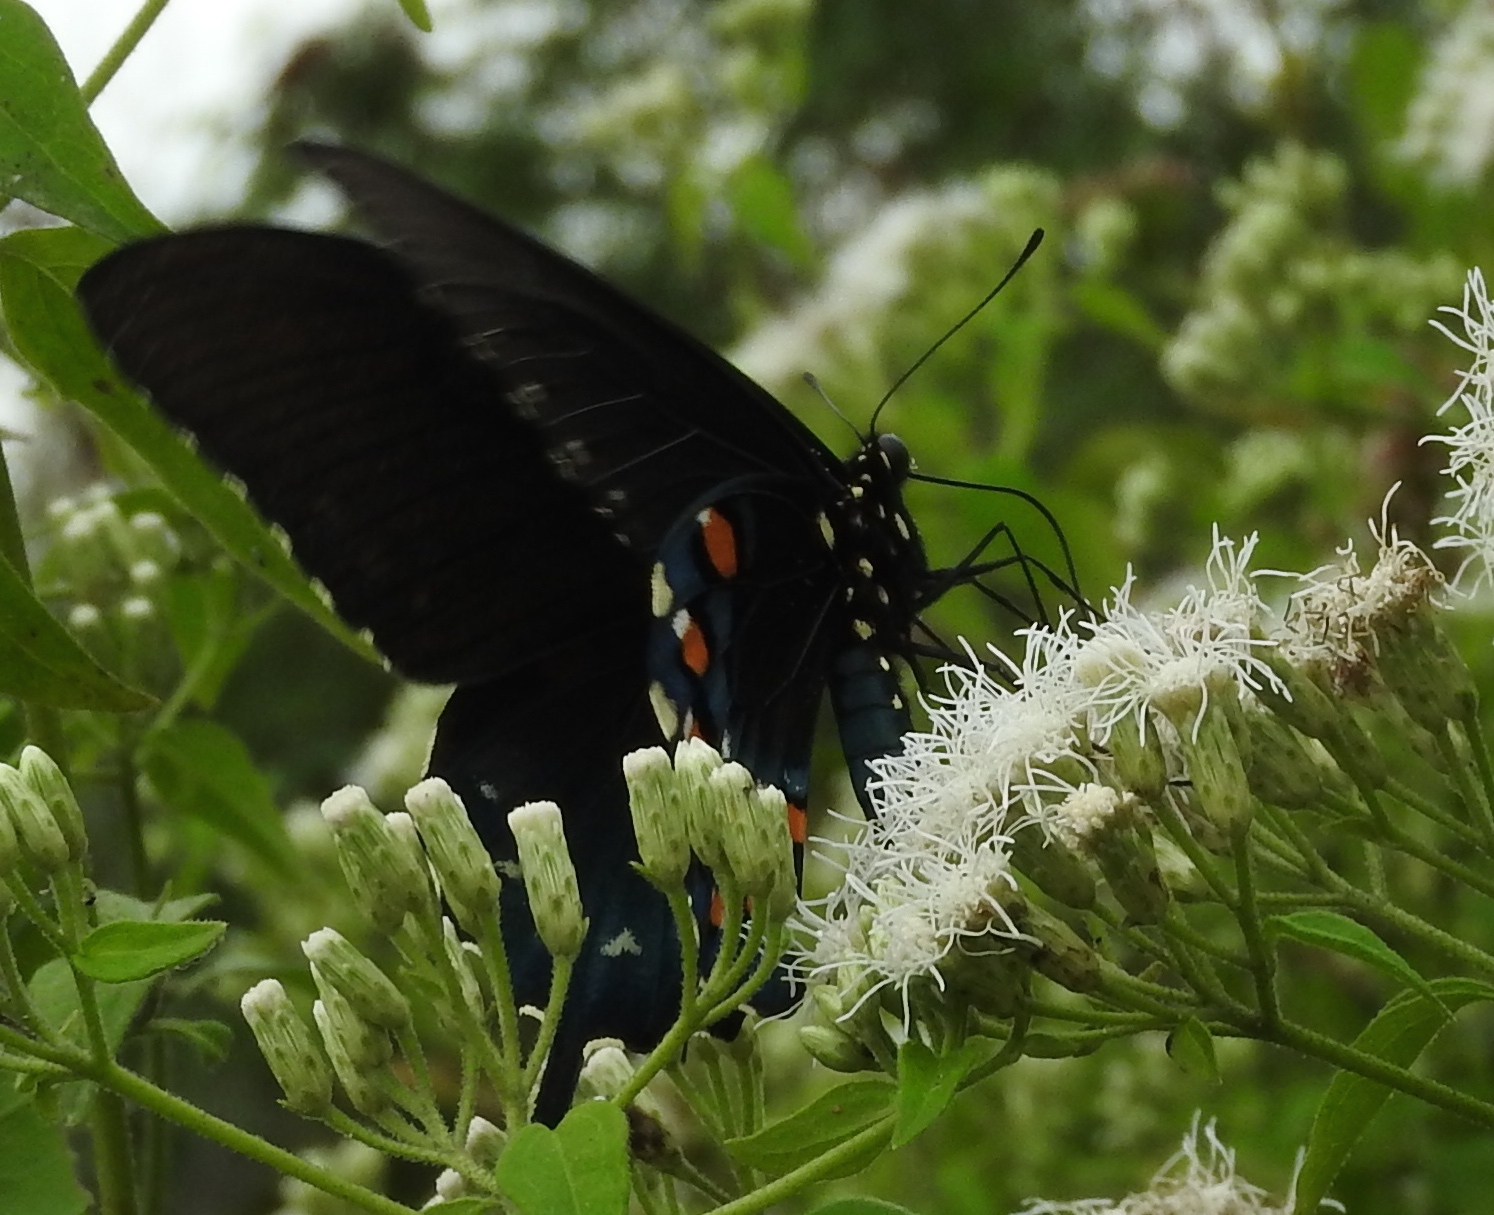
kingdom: Animalia
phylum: Arthropoda
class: Insecta
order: Lepidoptera
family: Papilionidae
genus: Battus
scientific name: Battus philenor
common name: Pipevine swallowtail
